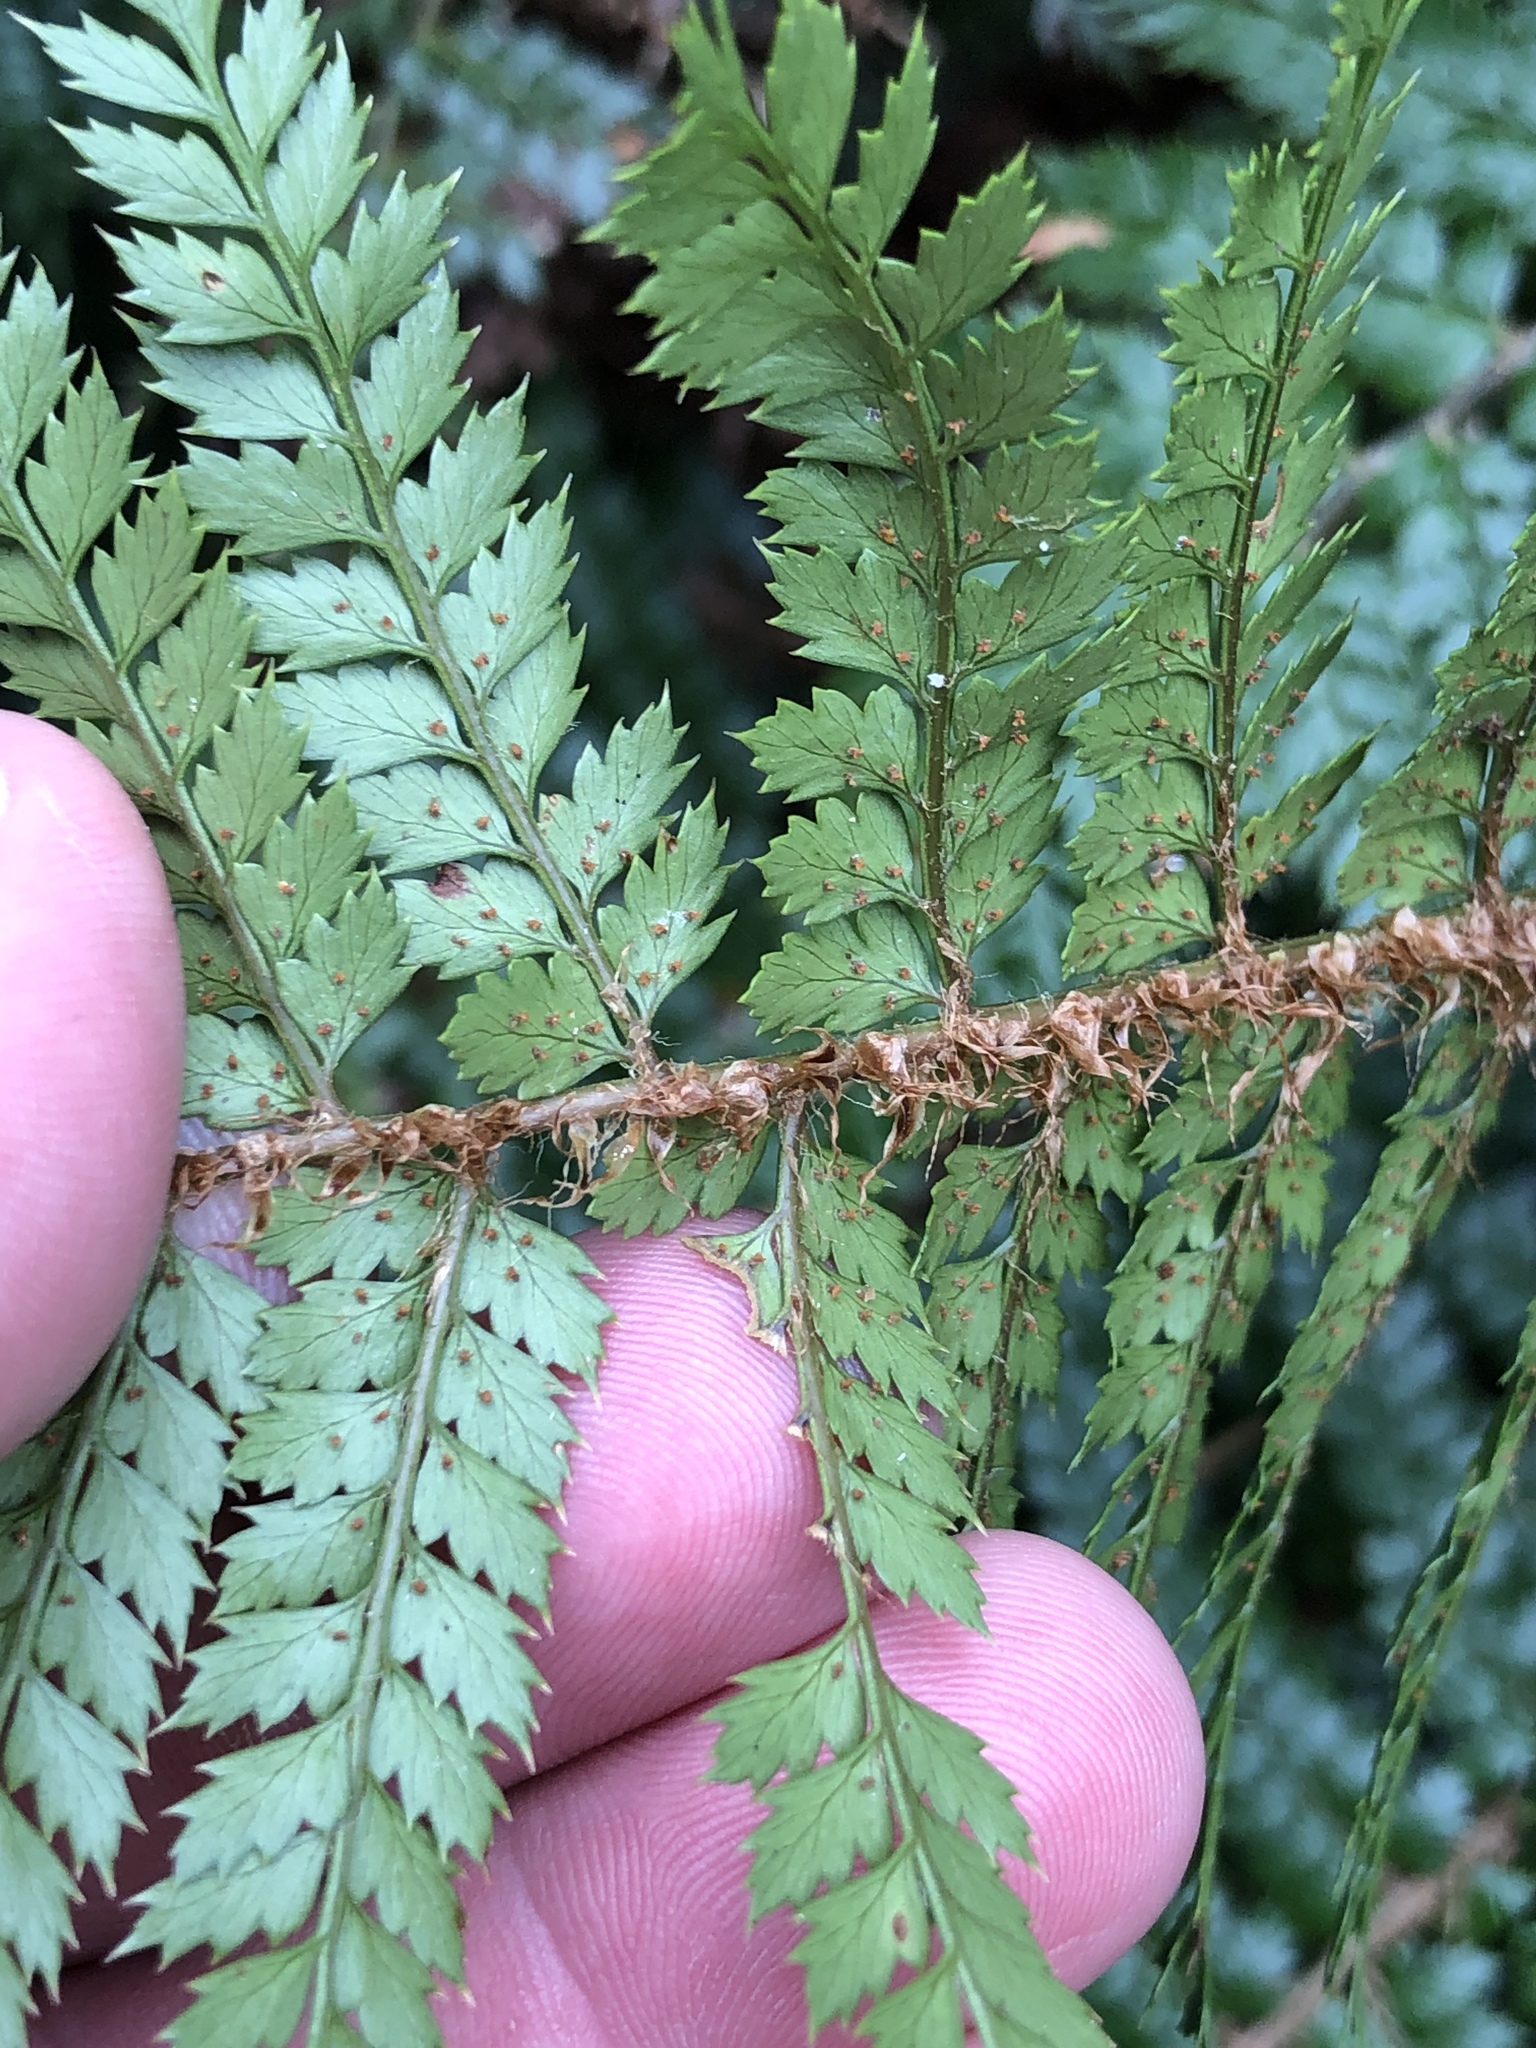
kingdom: Plantae
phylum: Tracheophyta
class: Polypodiopsida
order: Polypodiales
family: Dryopteridaceae
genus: Polystichum
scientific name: Polystichum vestitum
